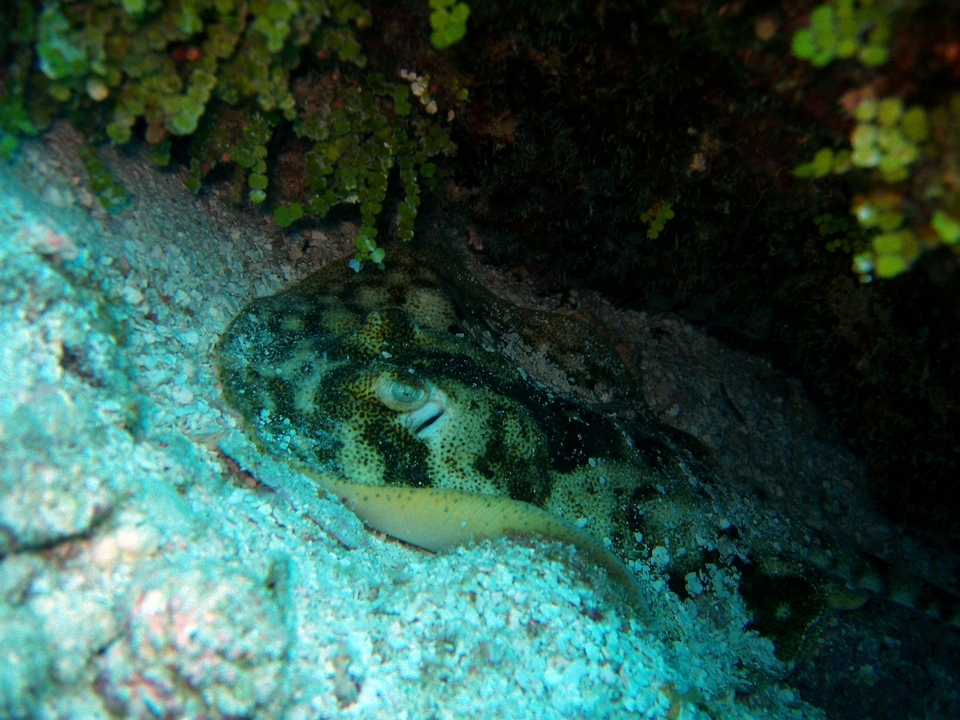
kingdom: Animalia
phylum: Chordata
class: Elasmobranchii
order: Myliobatiformes
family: Urotrygonidae
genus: Urobatis
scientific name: Urobatis jamaicensis
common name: Yellow stingray
